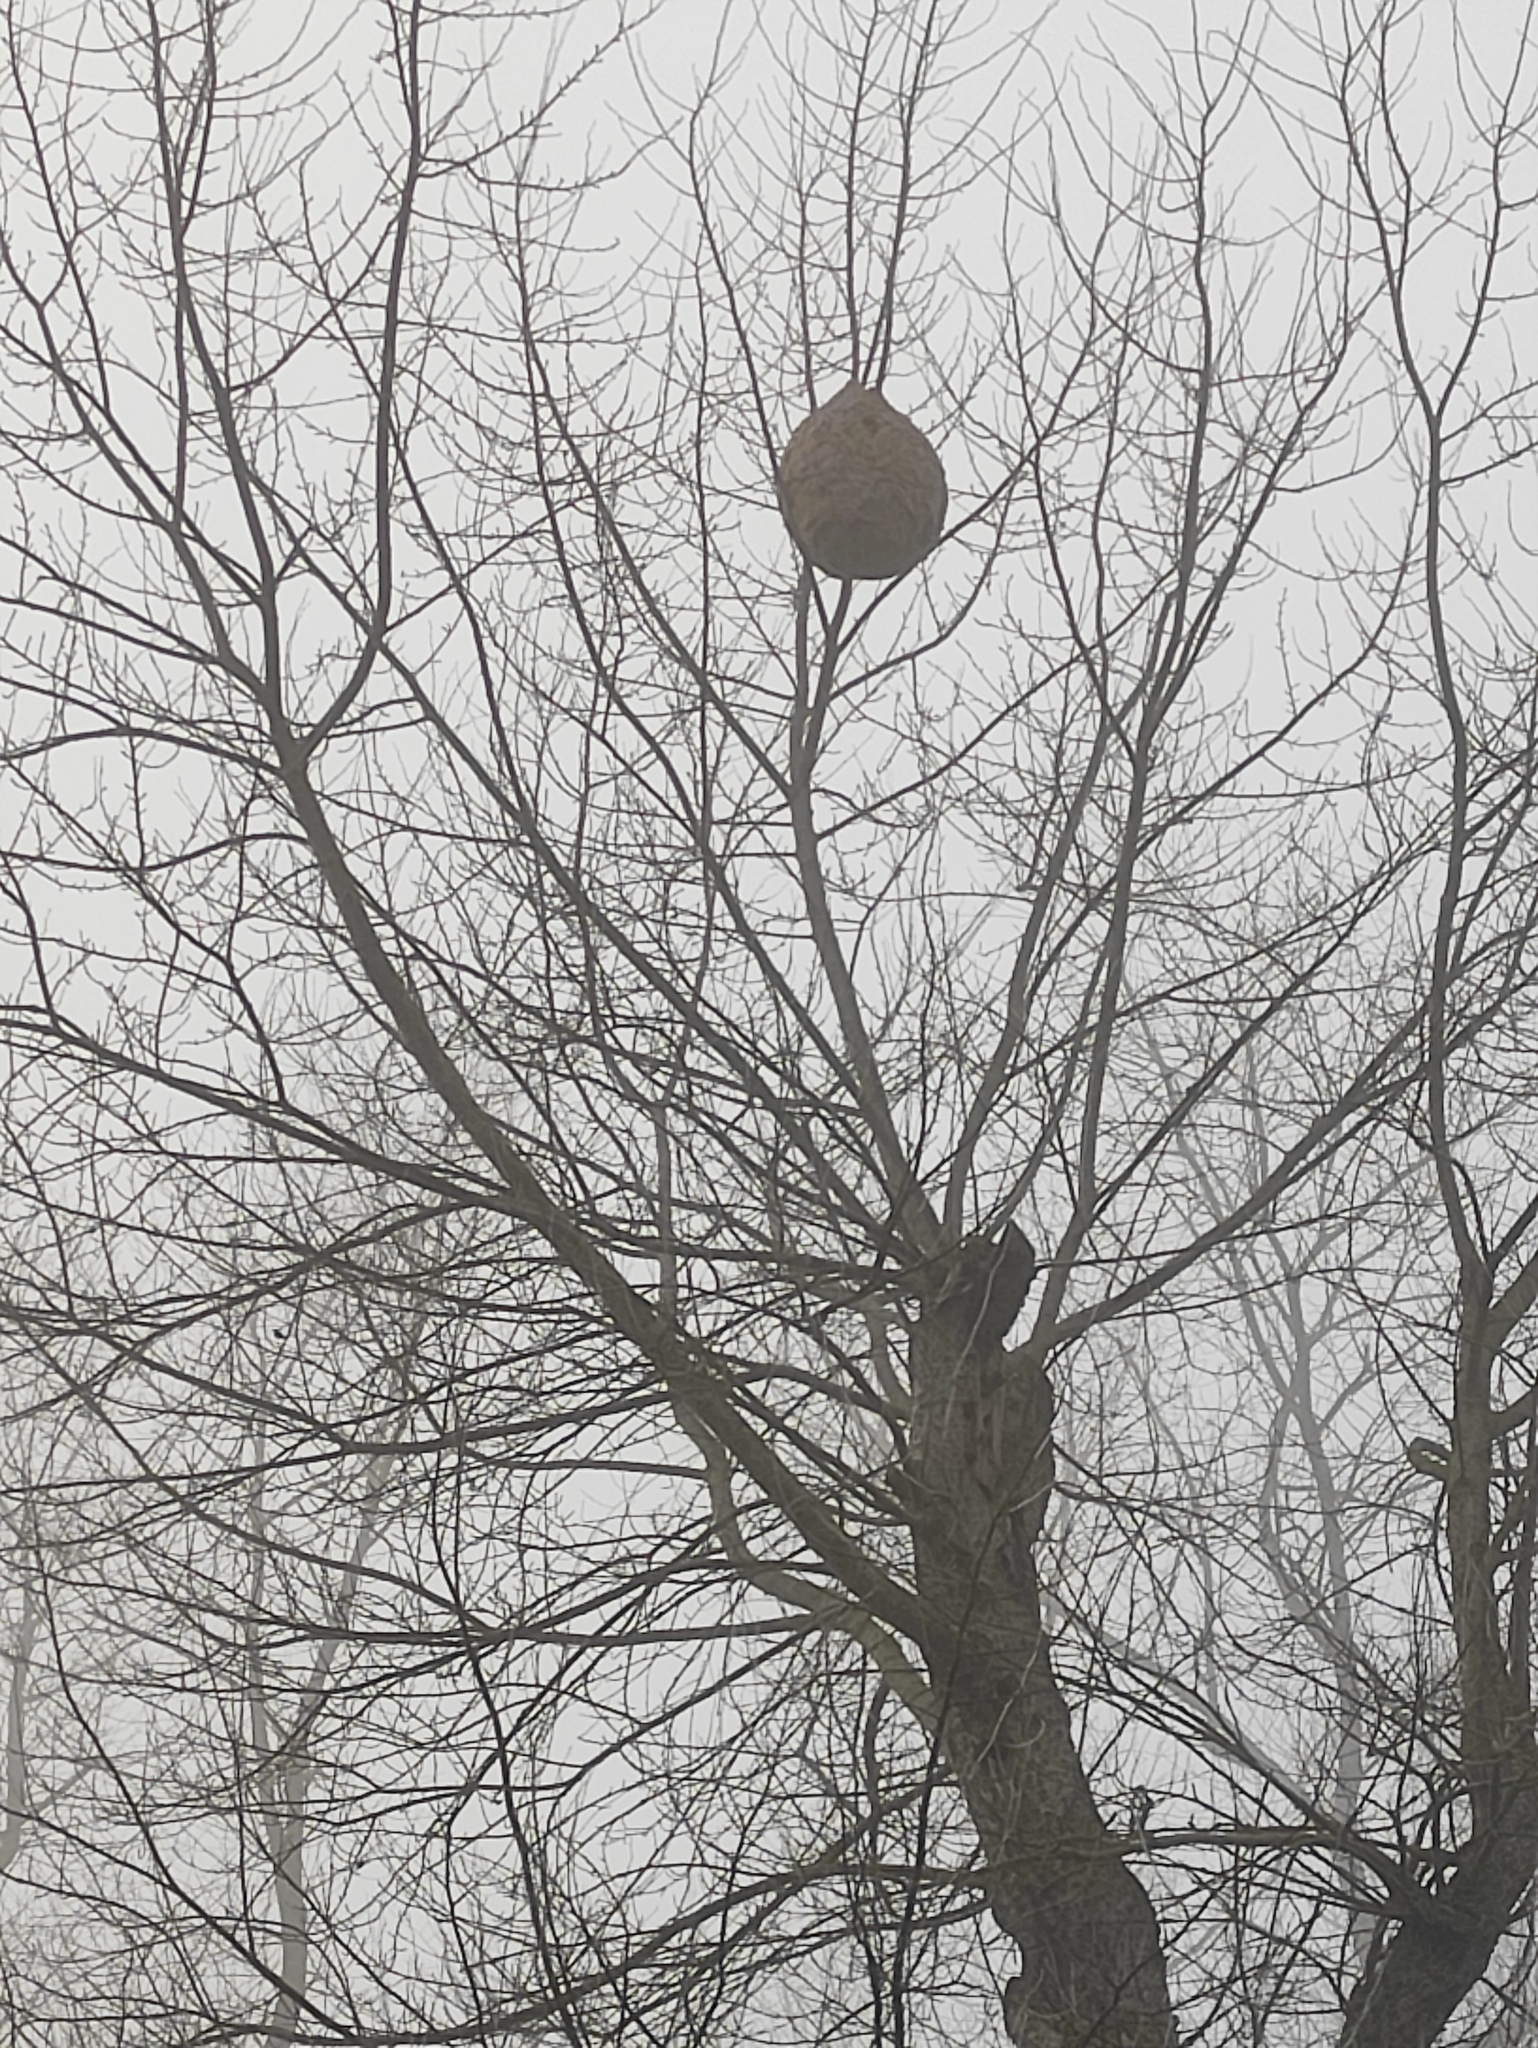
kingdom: Animalia
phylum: Arthropoda
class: Insecta
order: Hymenoptera
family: Vespidae
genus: Vespa
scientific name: Vespa velutina
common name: Asian hornet
